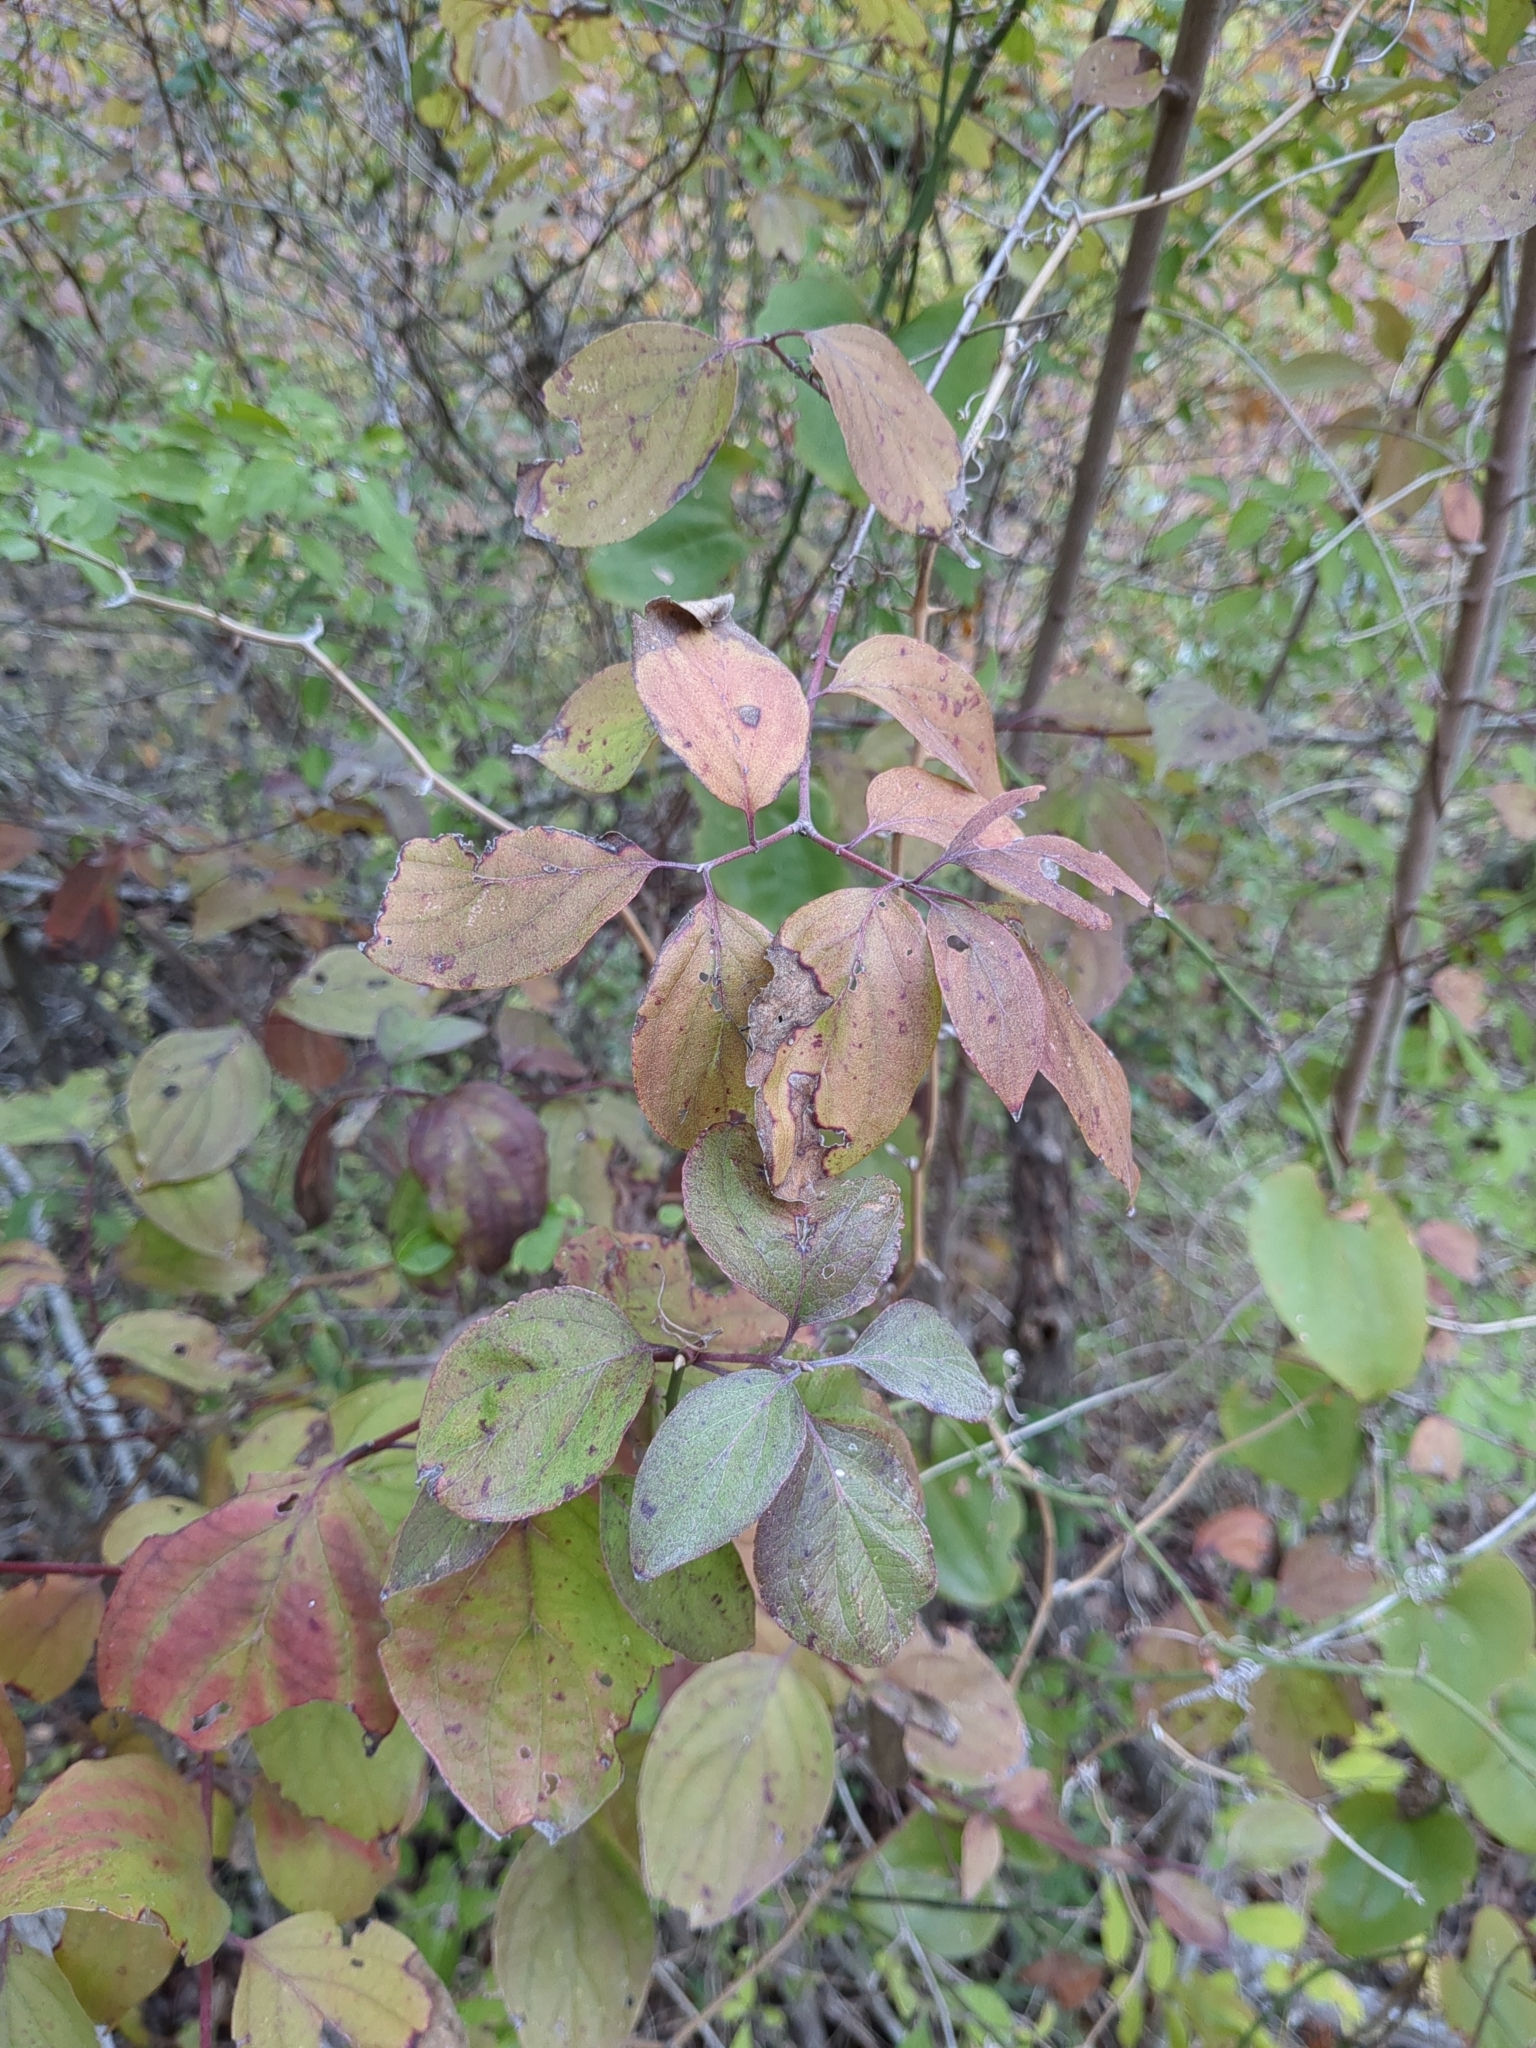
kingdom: Plantae
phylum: Tracheophyta
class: Magnoliopsida
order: Cornales
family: Cornaceae
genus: Cornus
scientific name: Cornus drummondii
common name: Rough-leaf dogwood
